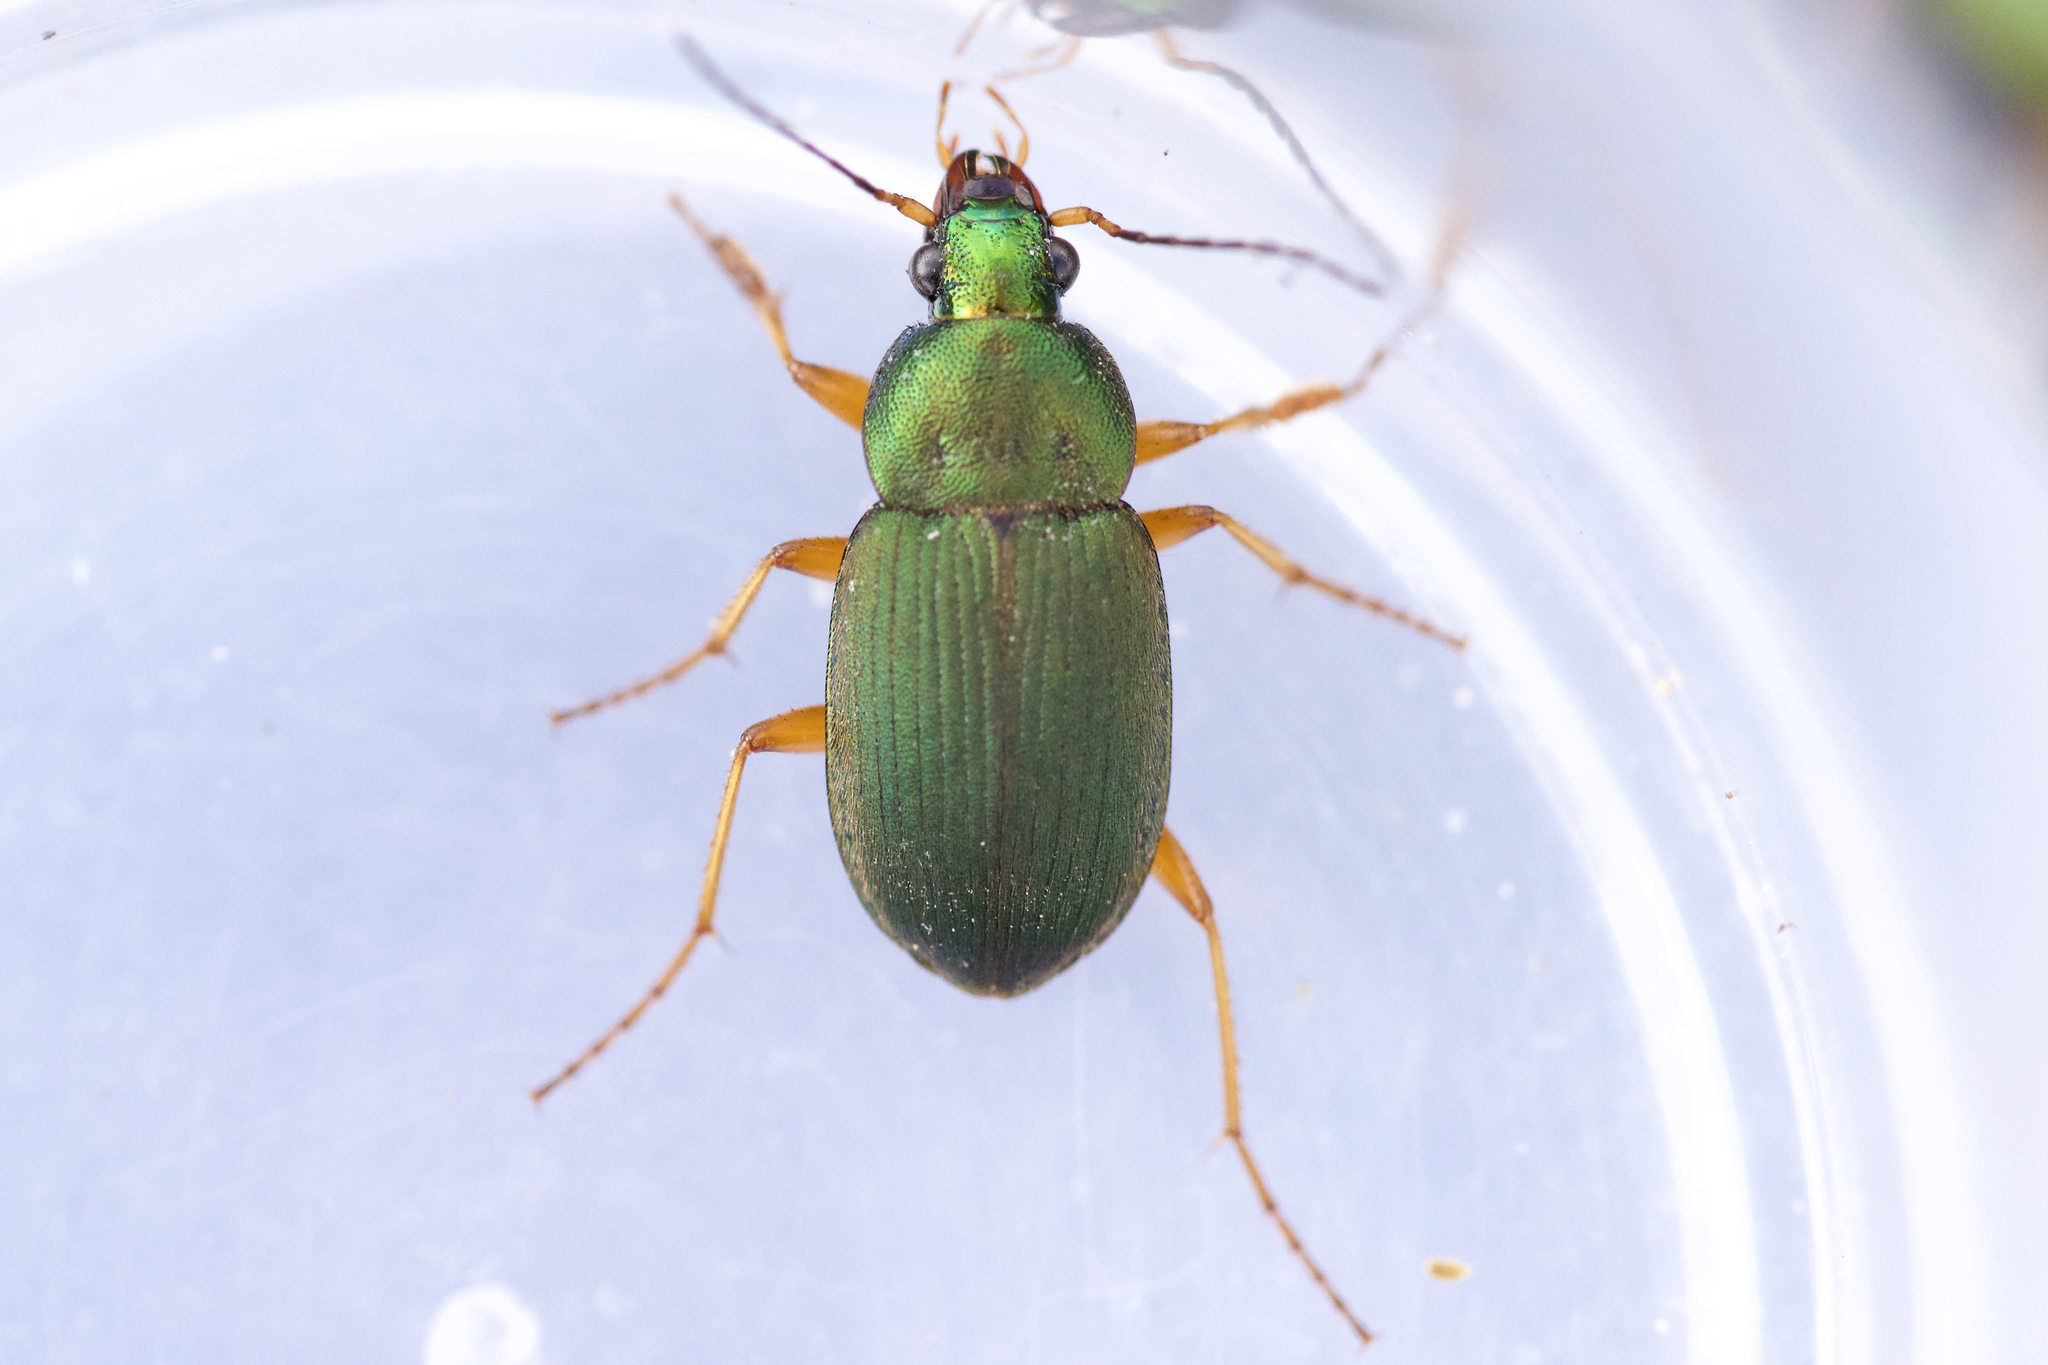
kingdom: Animalia
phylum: Arthropoda
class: Insecta
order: Coleoptera
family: Carabidae
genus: Chlaenius
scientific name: Chlaenius lithophilus
